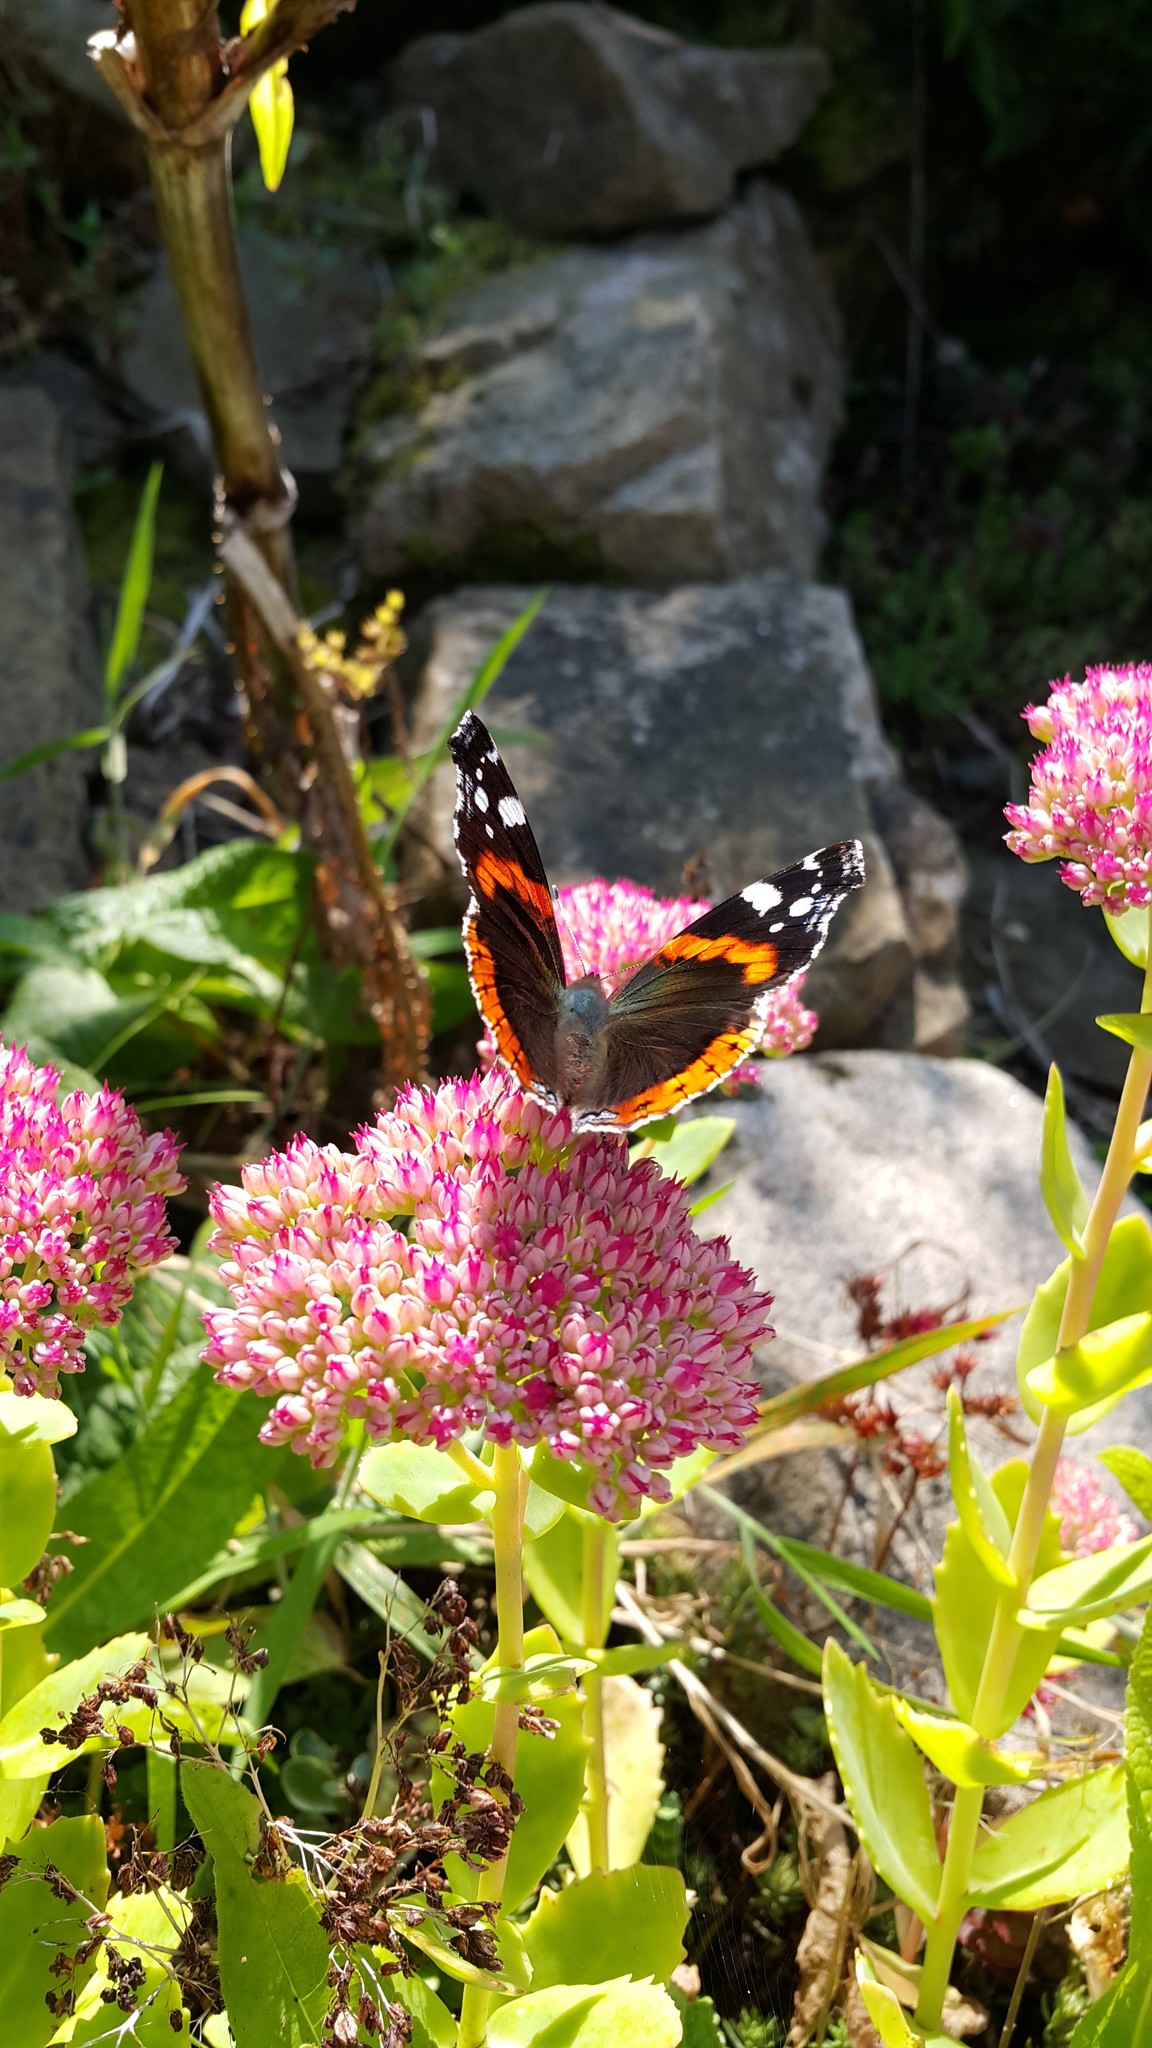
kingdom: Animalia
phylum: Arthropoda
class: Insecta
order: Lepidoptera
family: Nymphalidae
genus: Vanessa
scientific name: Vanessa atalanta
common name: Red admiral
